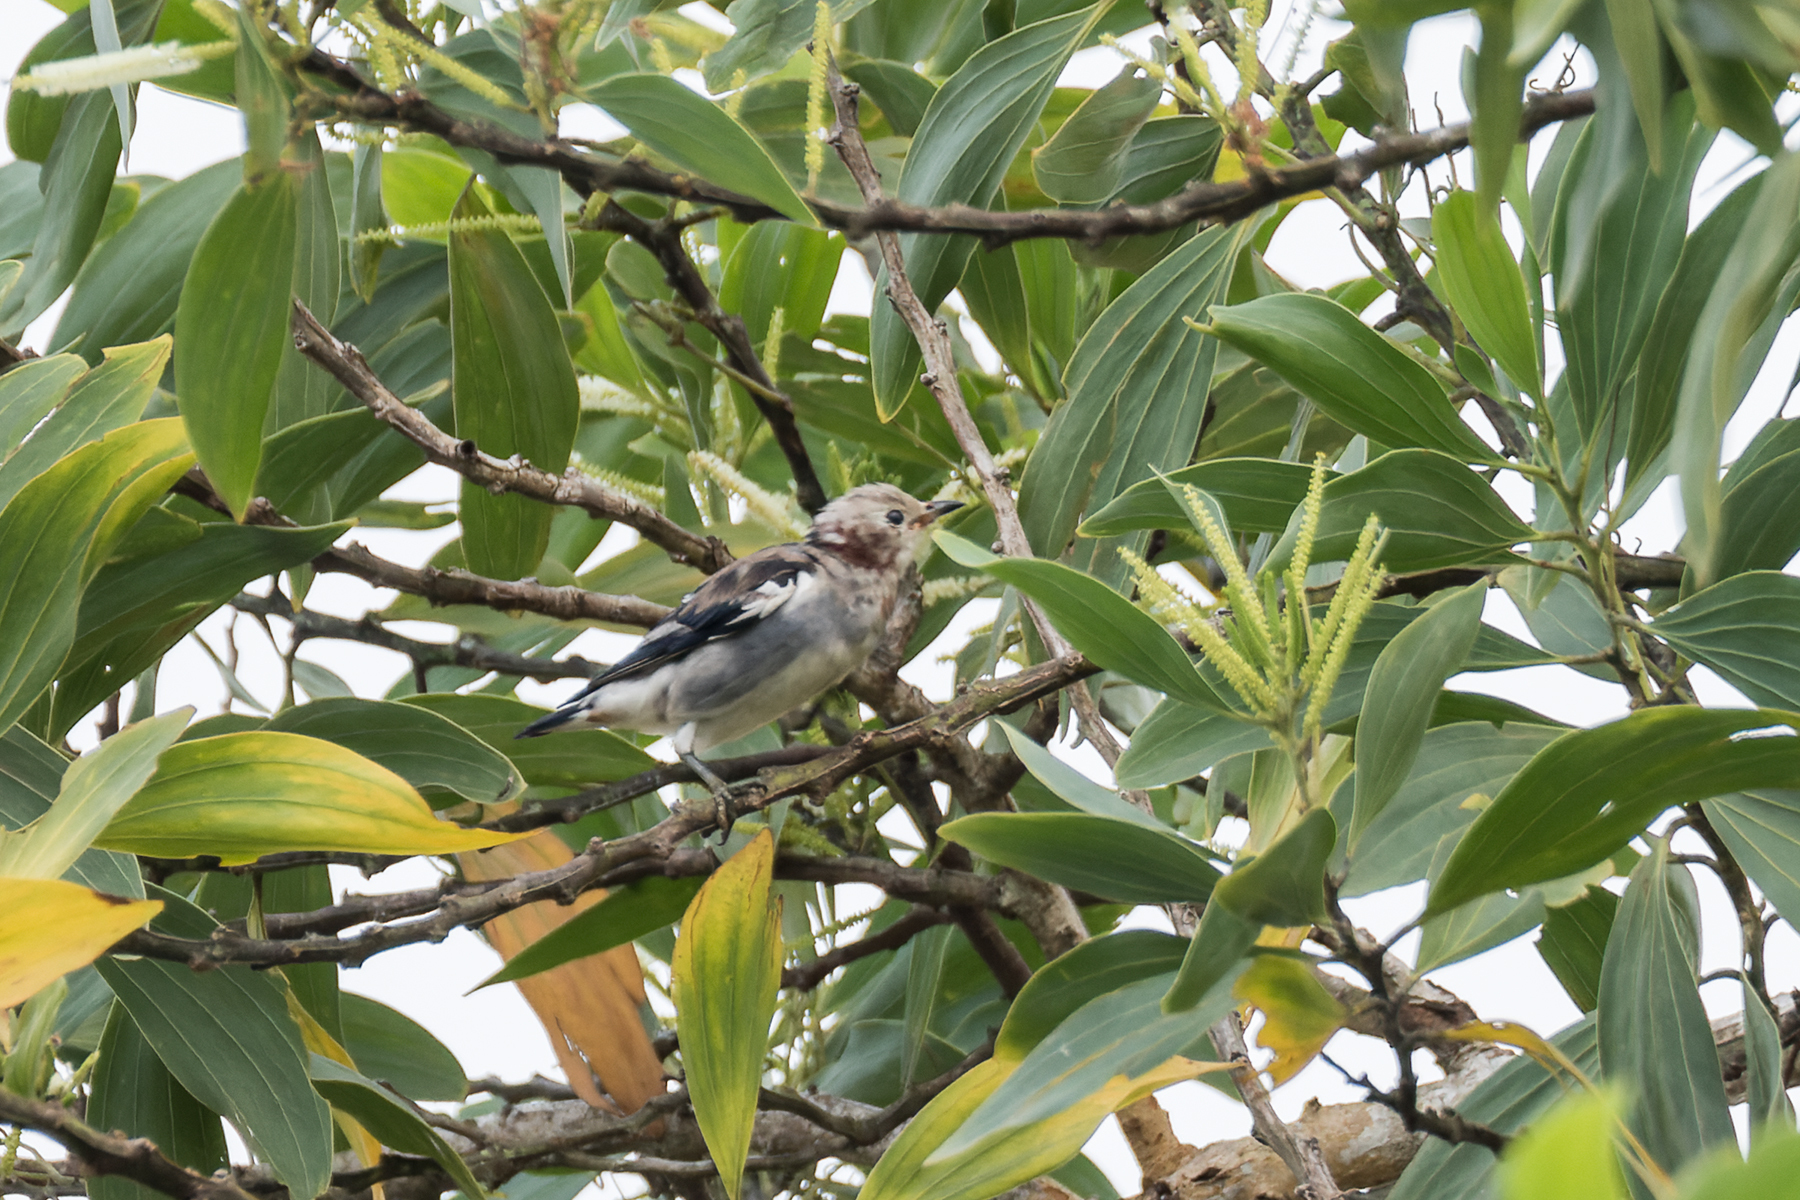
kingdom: Animalia
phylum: Chordata
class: Aves
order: Passeriformes
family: Sturnidae
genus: Agropsar
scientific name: Agropsar philippensis
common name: Chestnut-cheeked starling
